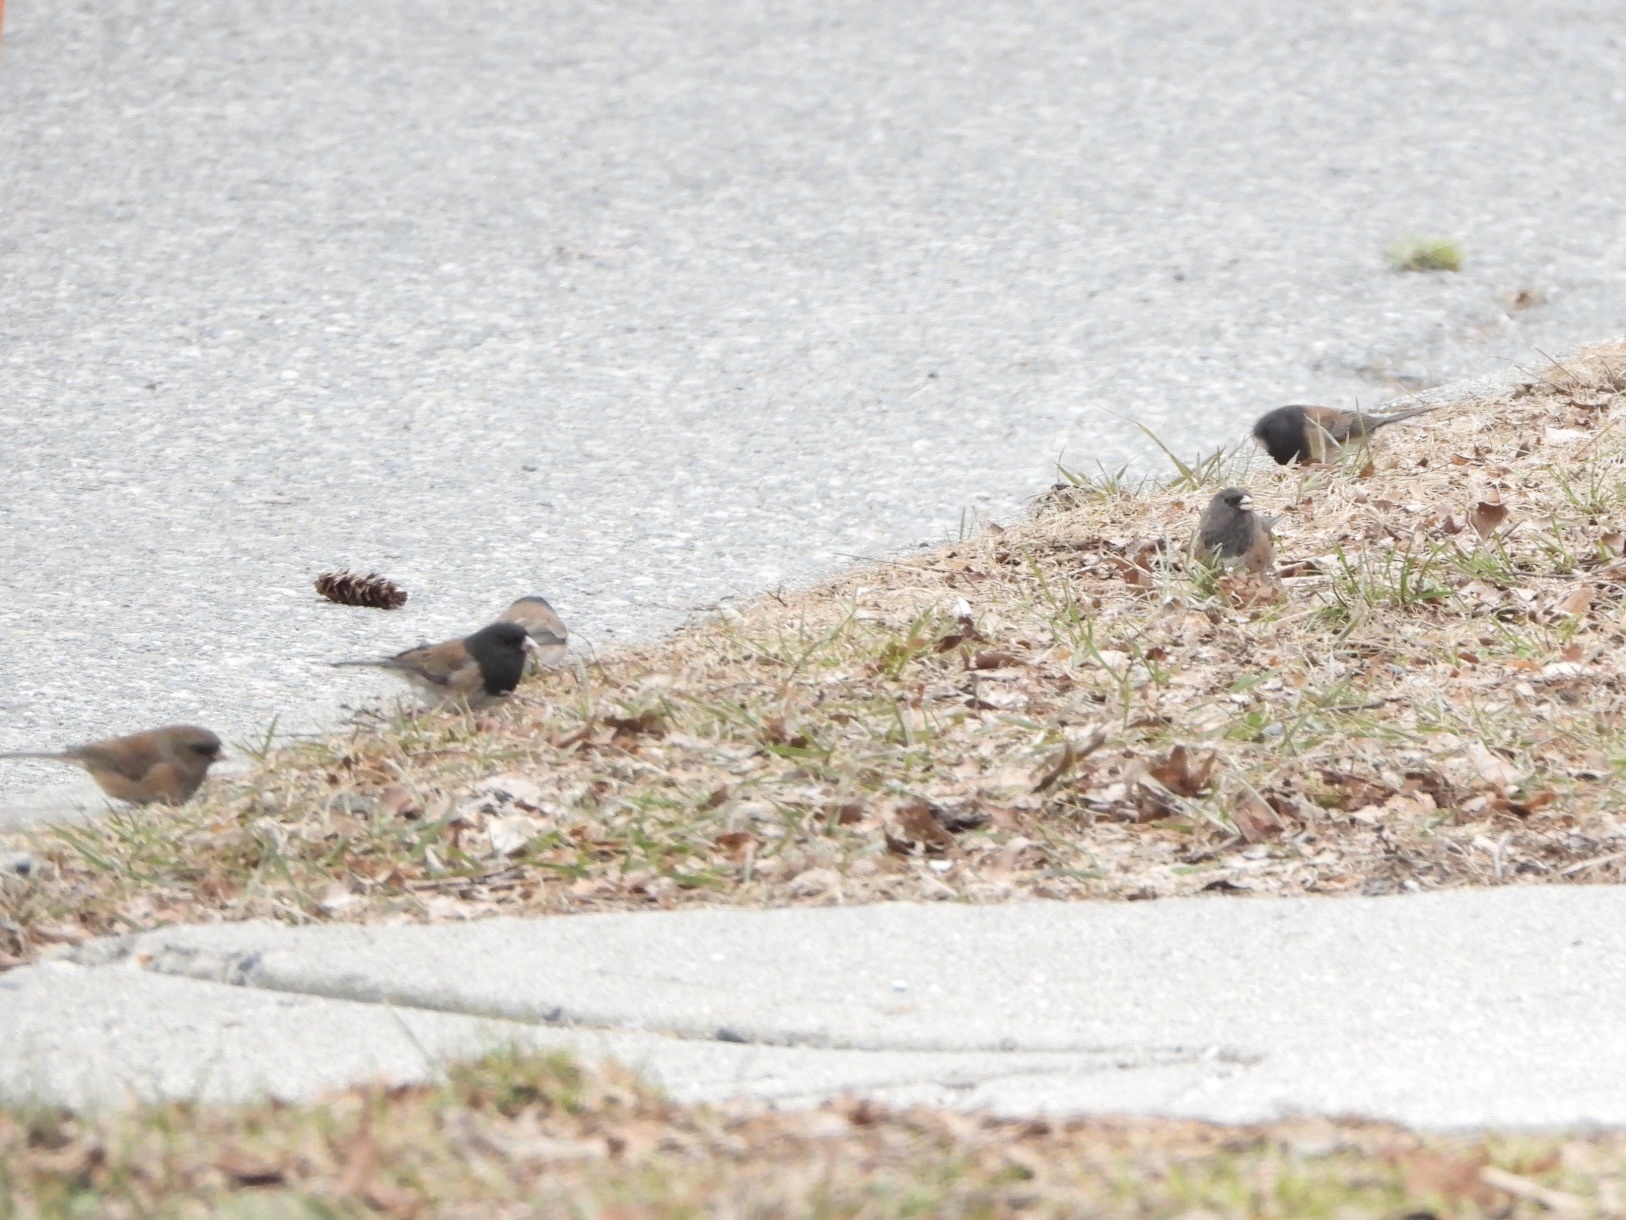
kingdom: Animalia
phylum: Chordata
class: Aves
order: Passeriformes
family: Passerellidae
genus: Junco
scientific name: Junco hyemalis
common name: Dark-eyed junco
